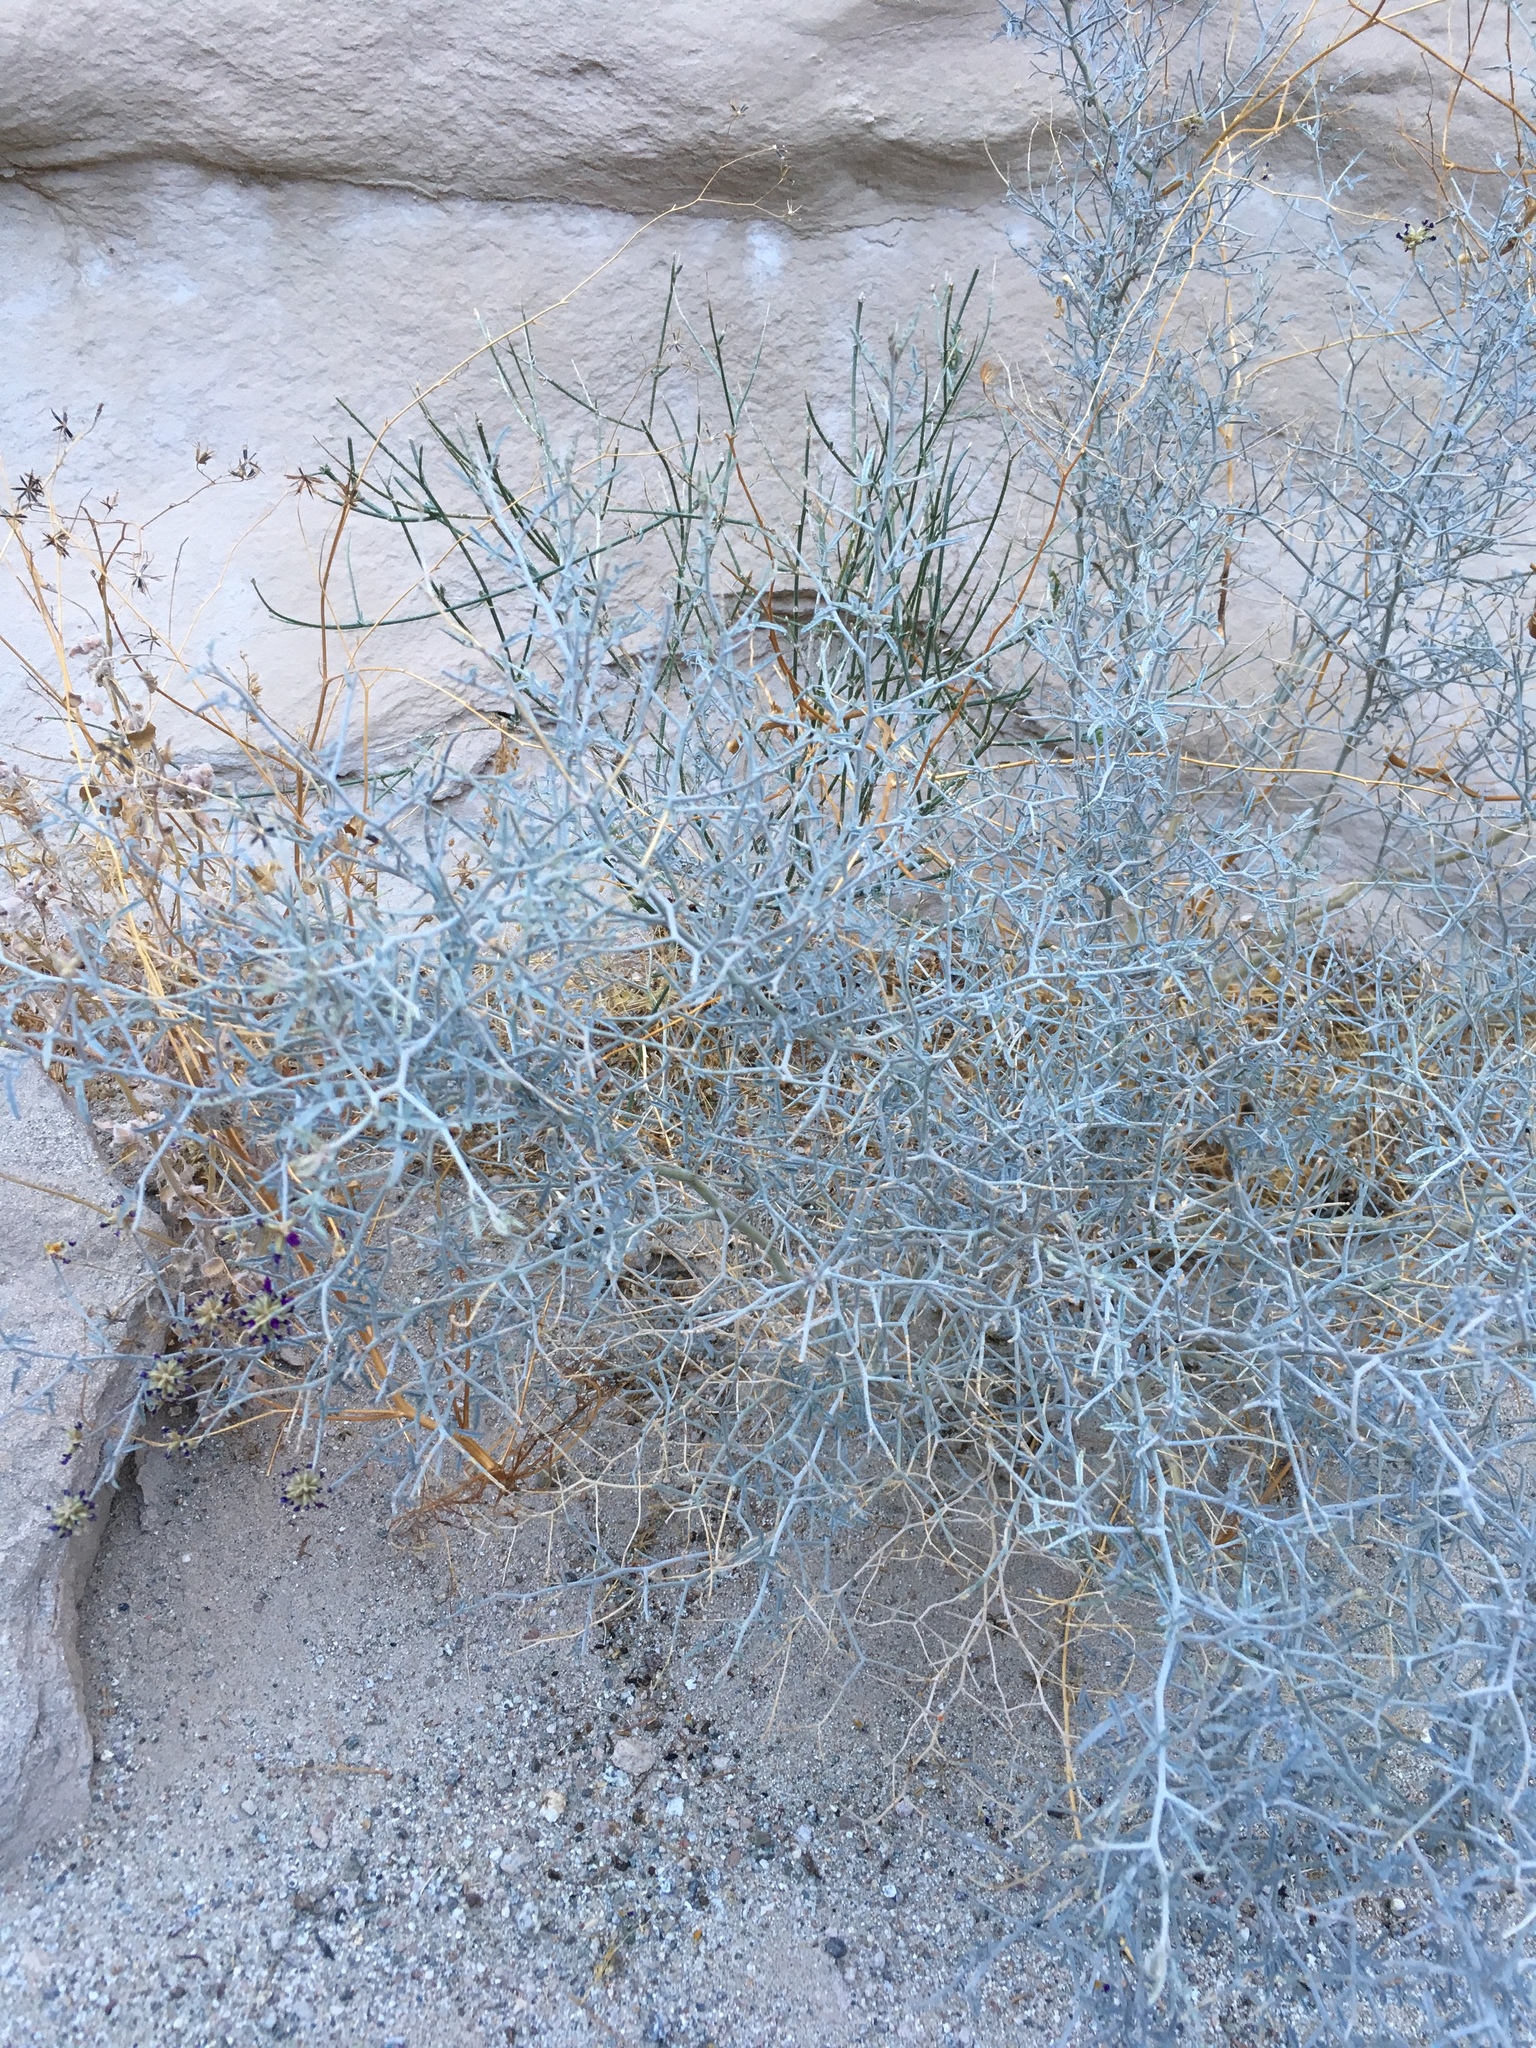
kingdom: Plantae
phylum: Tracheophyta
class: Magnoliopsida
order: Fabales
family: Fabaceae
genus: Psorothamnus
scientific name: Psorothamnus emoryi
